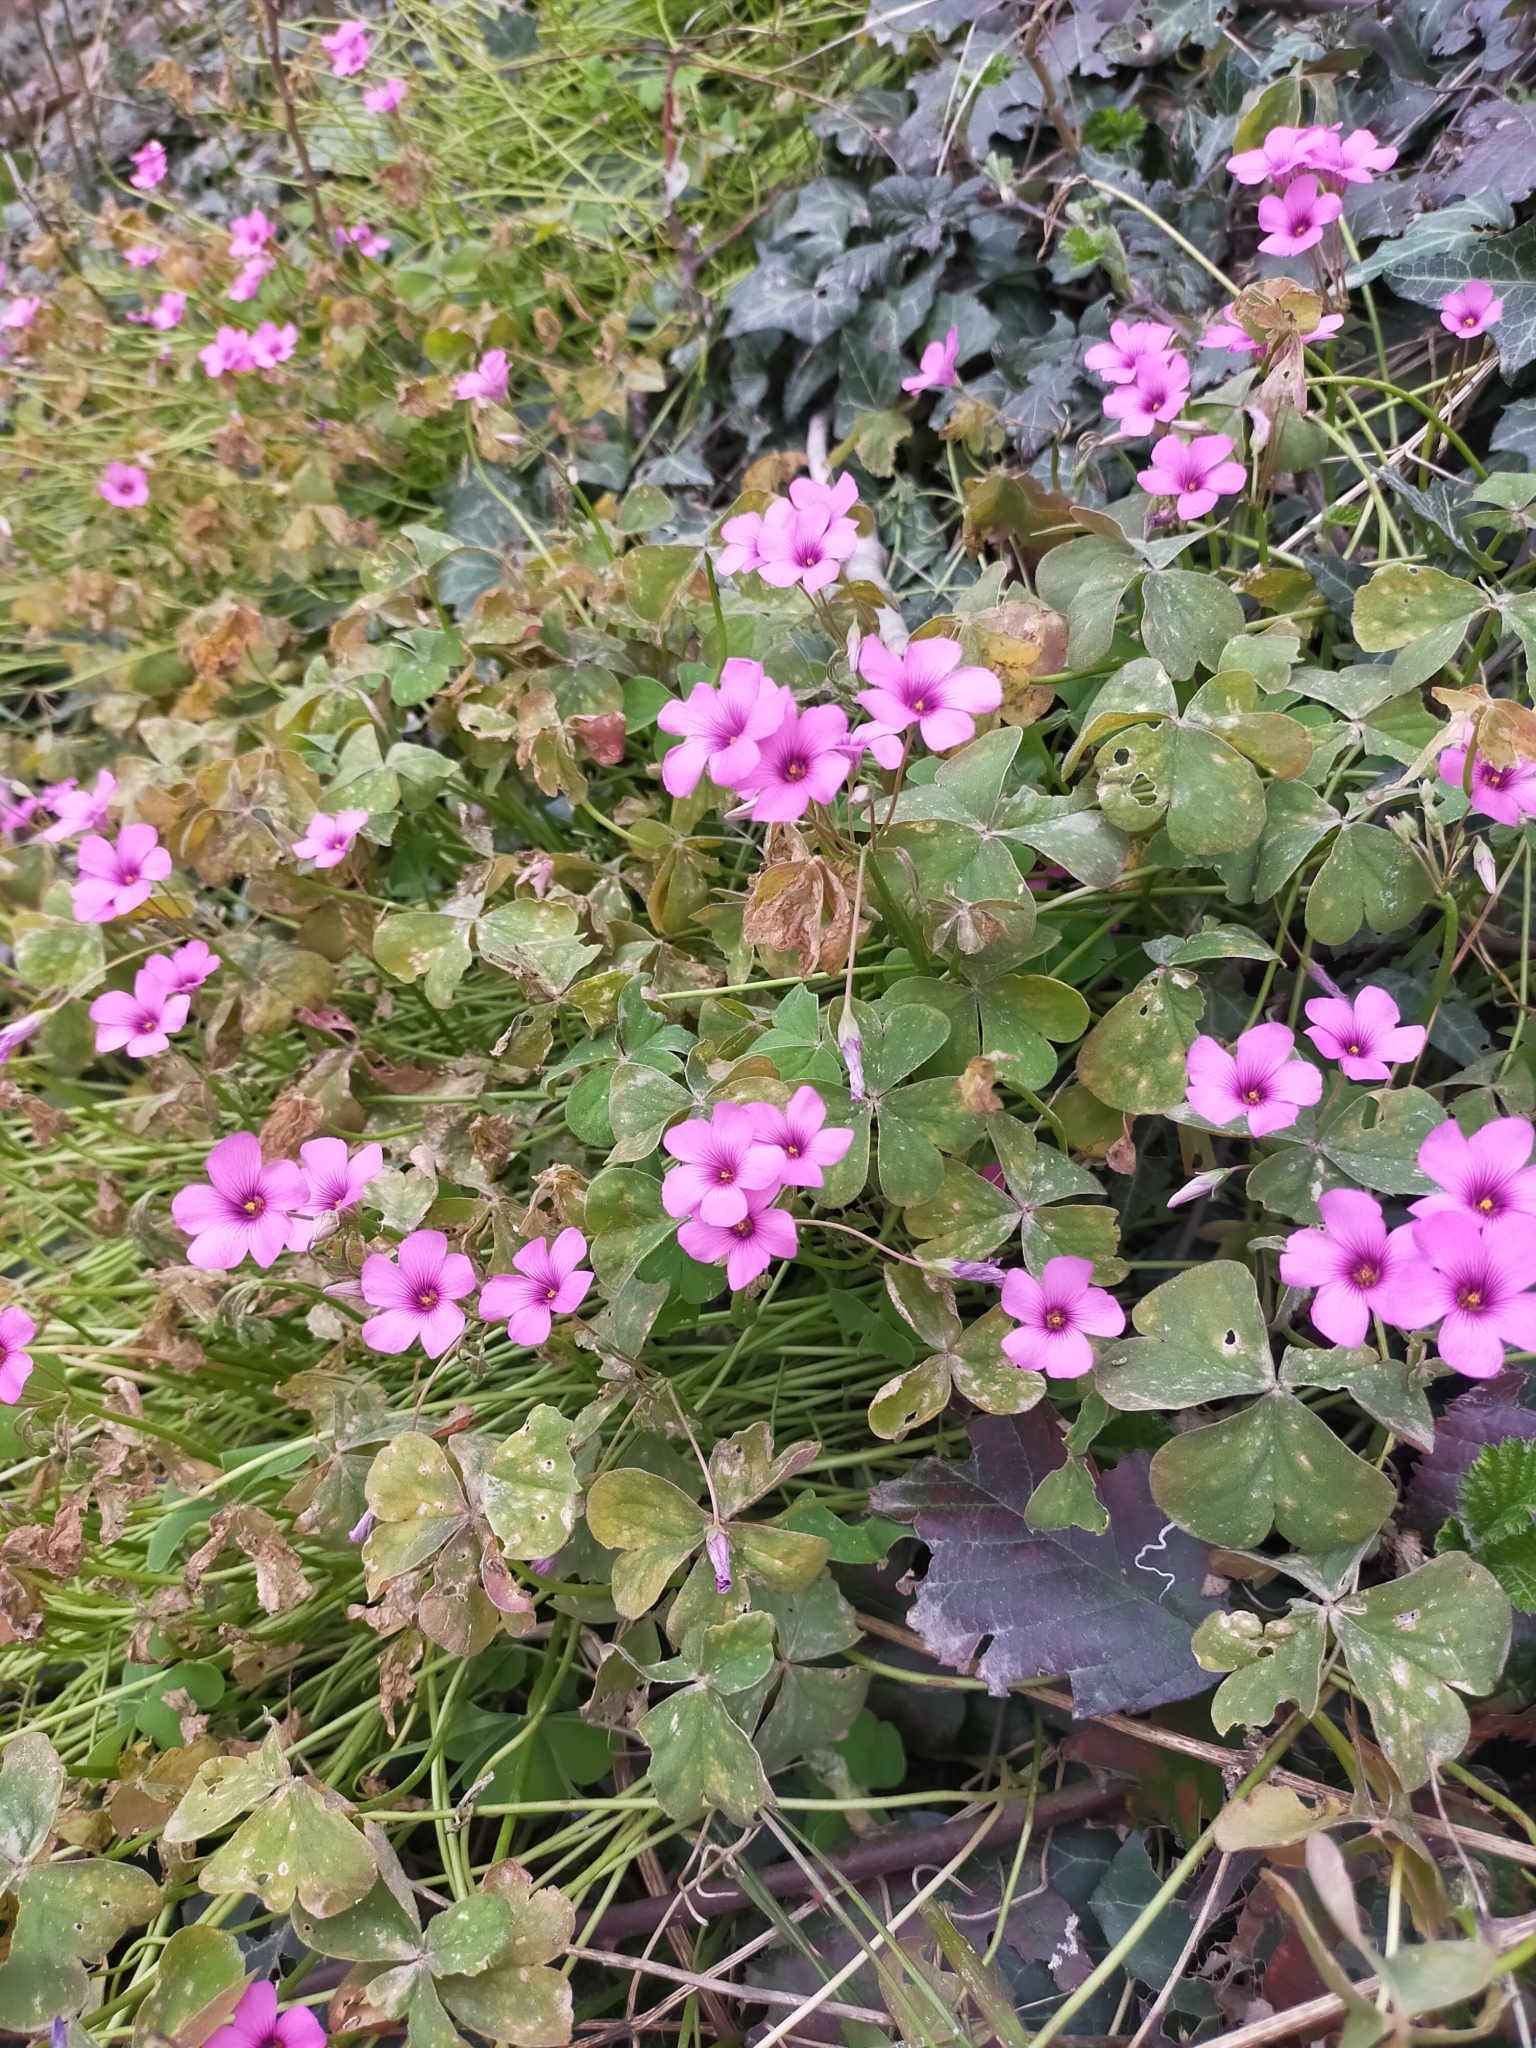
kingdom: Plantae
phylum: Tracheophyta
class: Magnoliopsida
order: Oxalidales
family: Oxalidaceae
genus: Oxalis
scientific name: Oxalis articulata
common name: Pink-sorrel
